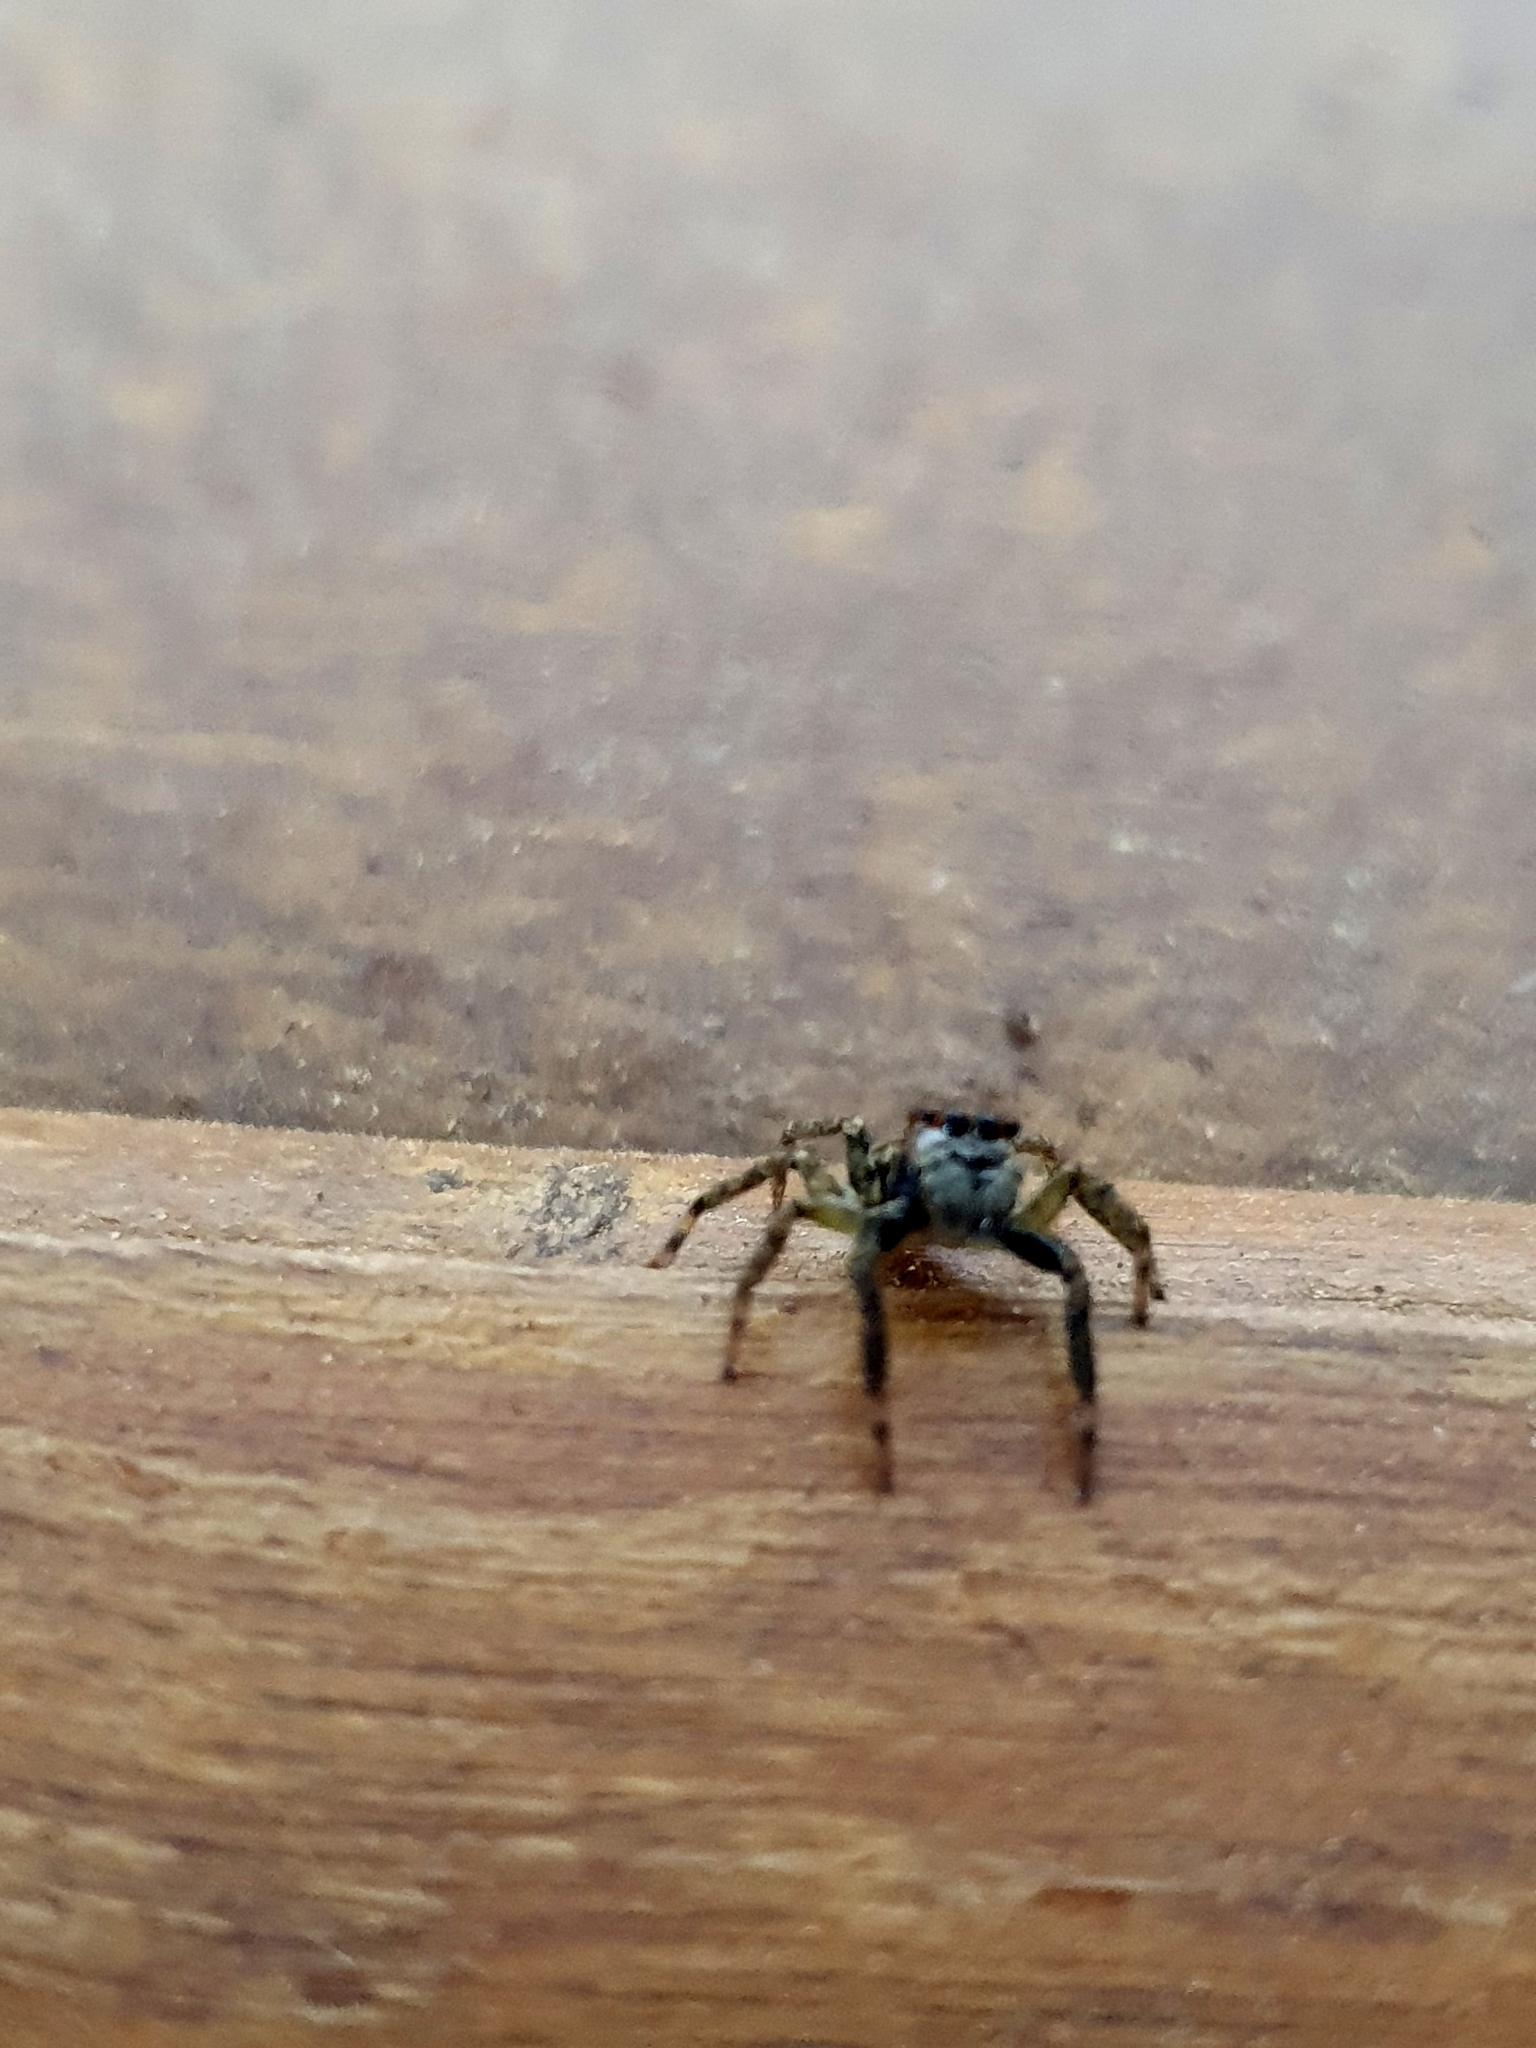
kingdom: Animalia
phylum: Arthropoda
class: Arachnida
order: Araneae
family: Salticidae
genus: Asaphobelis
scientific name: Asaphobelis physonychus
